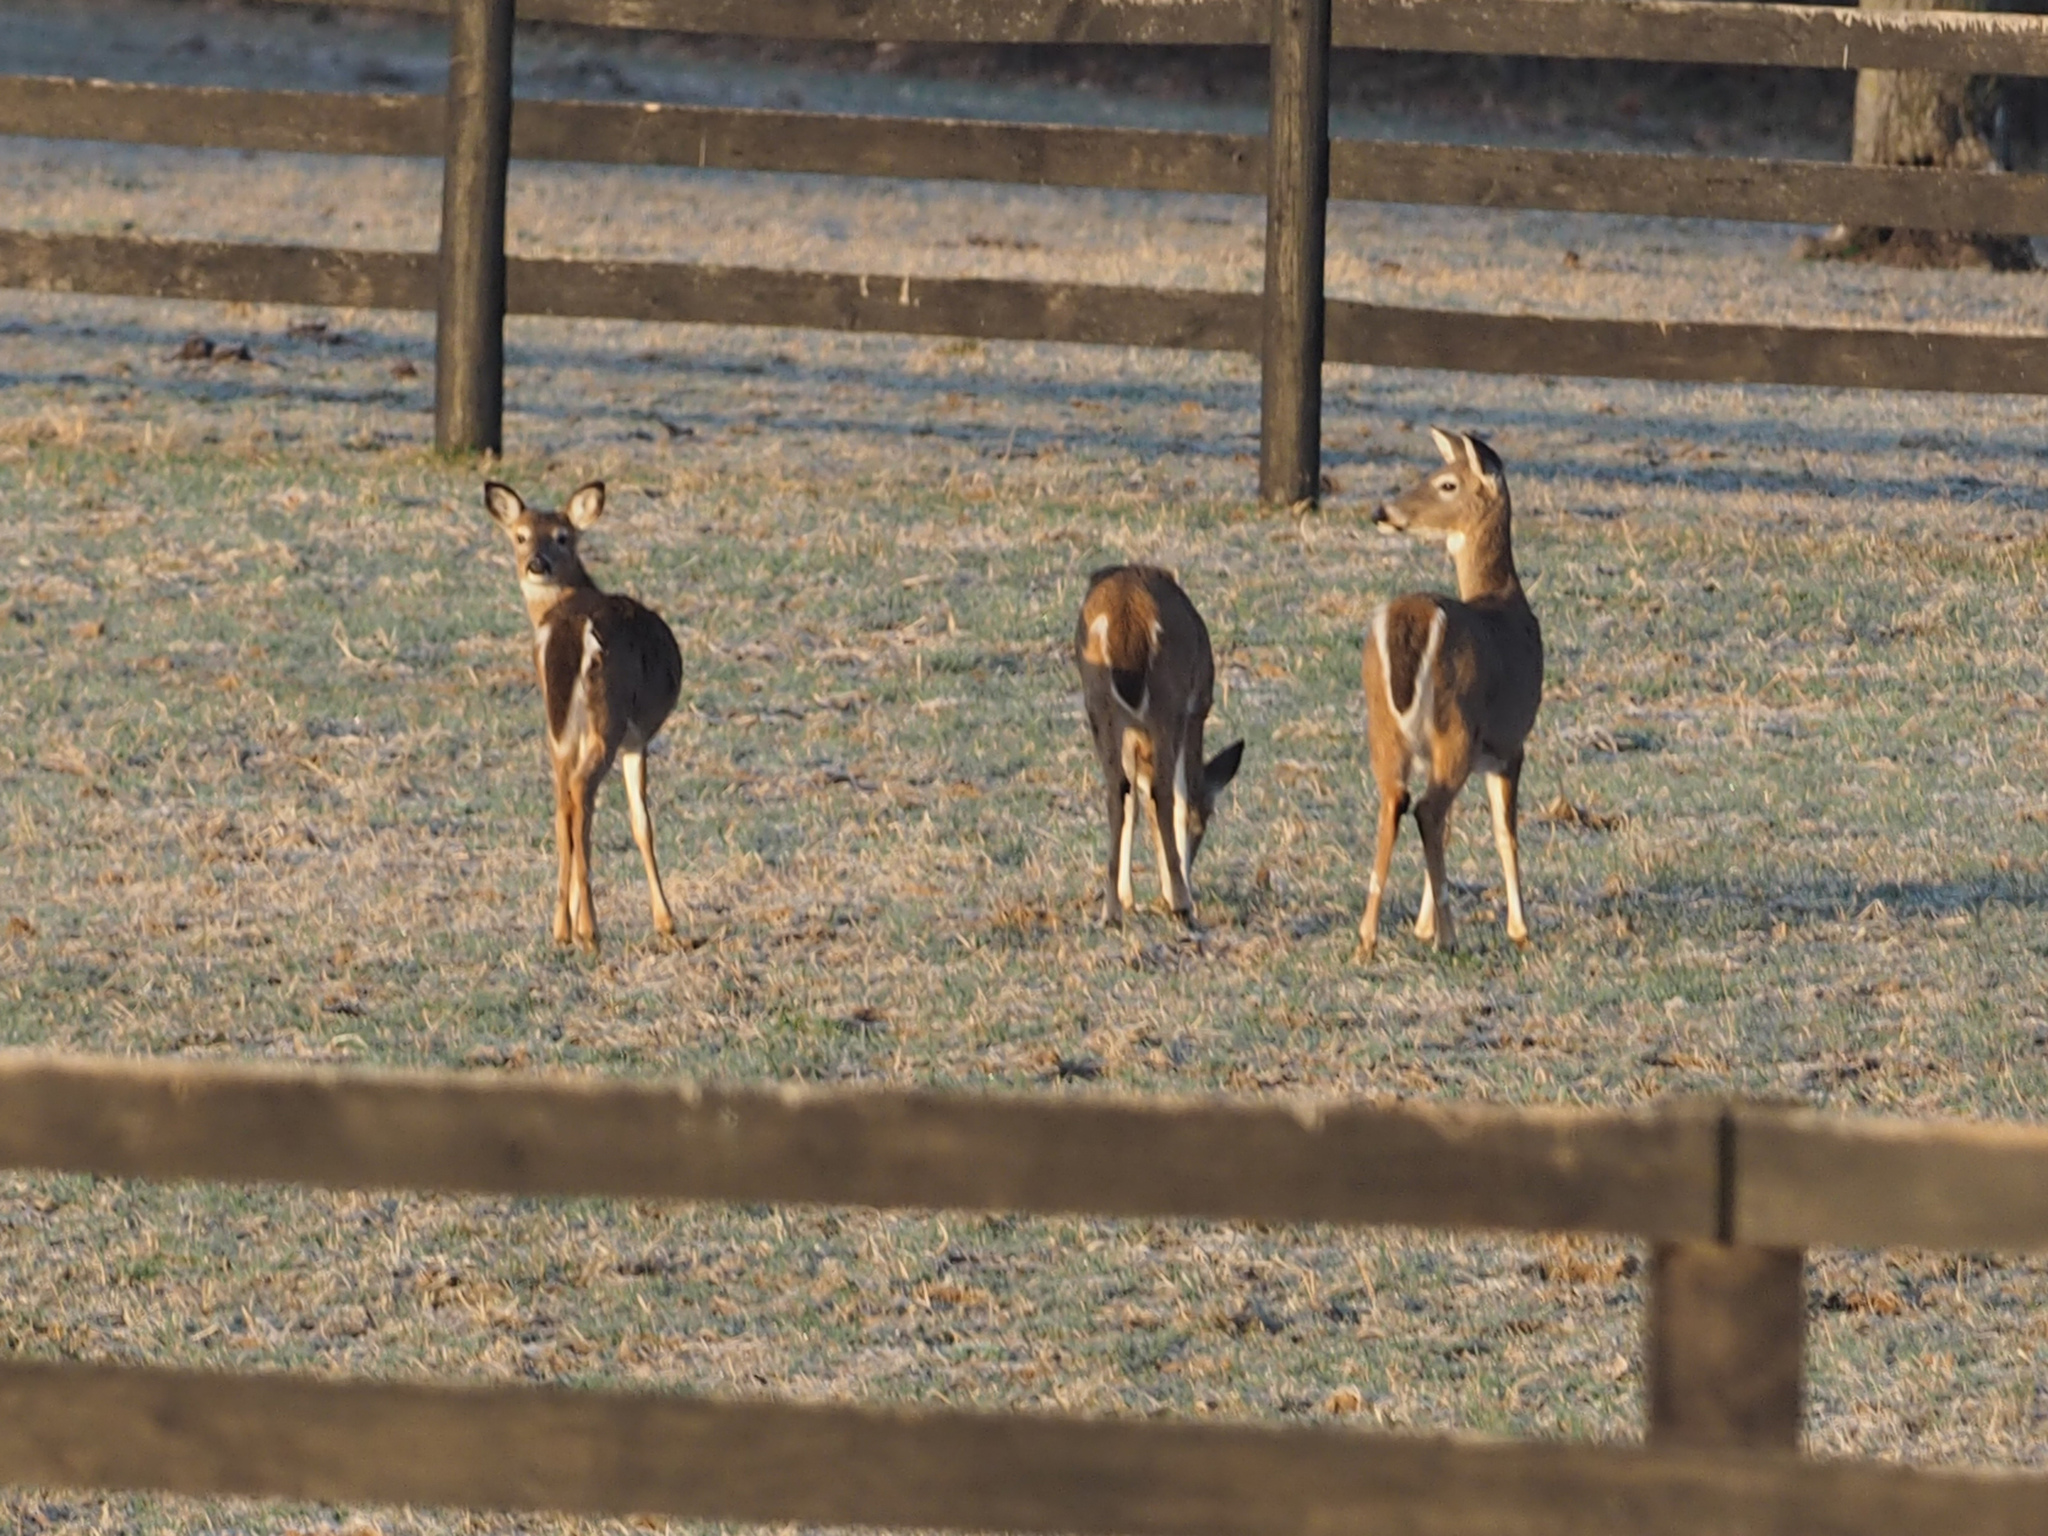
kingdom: Animalia
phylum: Chordata
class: Mammalia
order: Artiodactyla
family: Cervidae
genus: Odocoileus
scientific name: Odocoileus virginianus
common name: White-tailed deer
